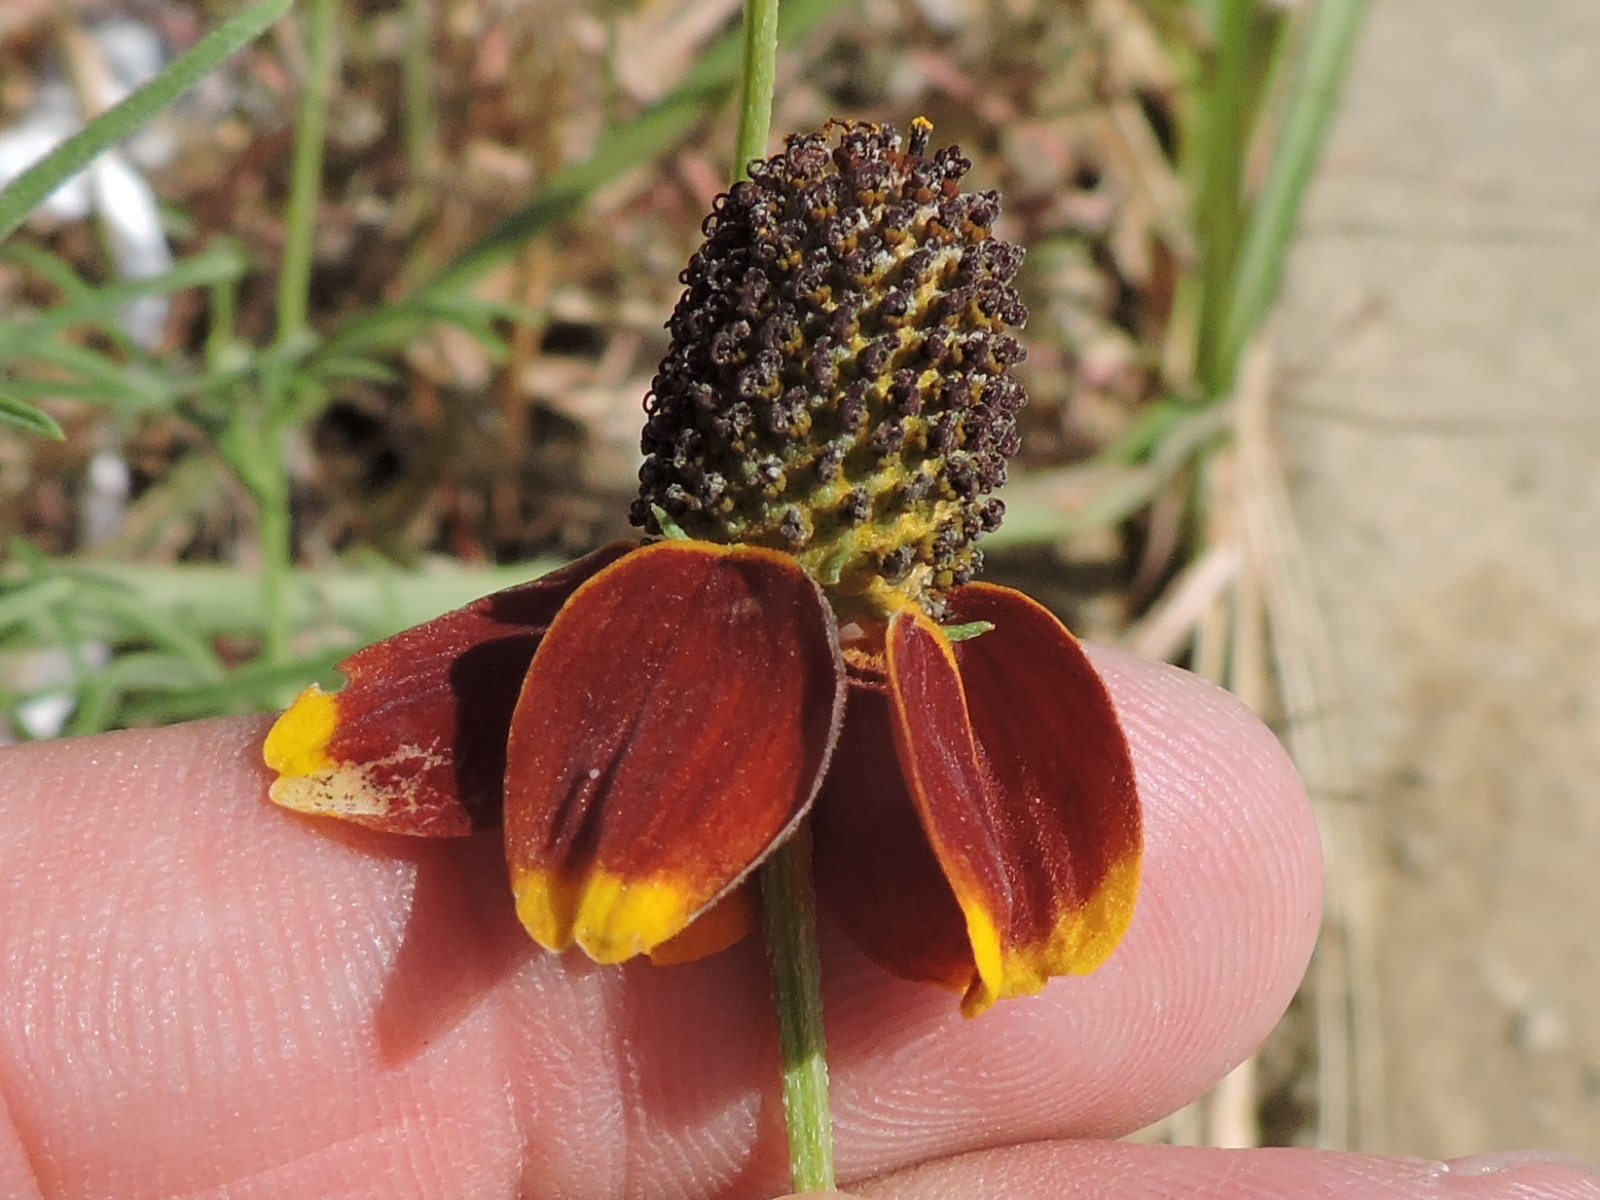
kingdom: Plantae
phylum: Tracheophyta
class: Magnoliopsida
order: Asterales
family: Asteraceae
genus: Ratibida
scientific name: Ratibida columnifera
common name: Prairie coneflower
